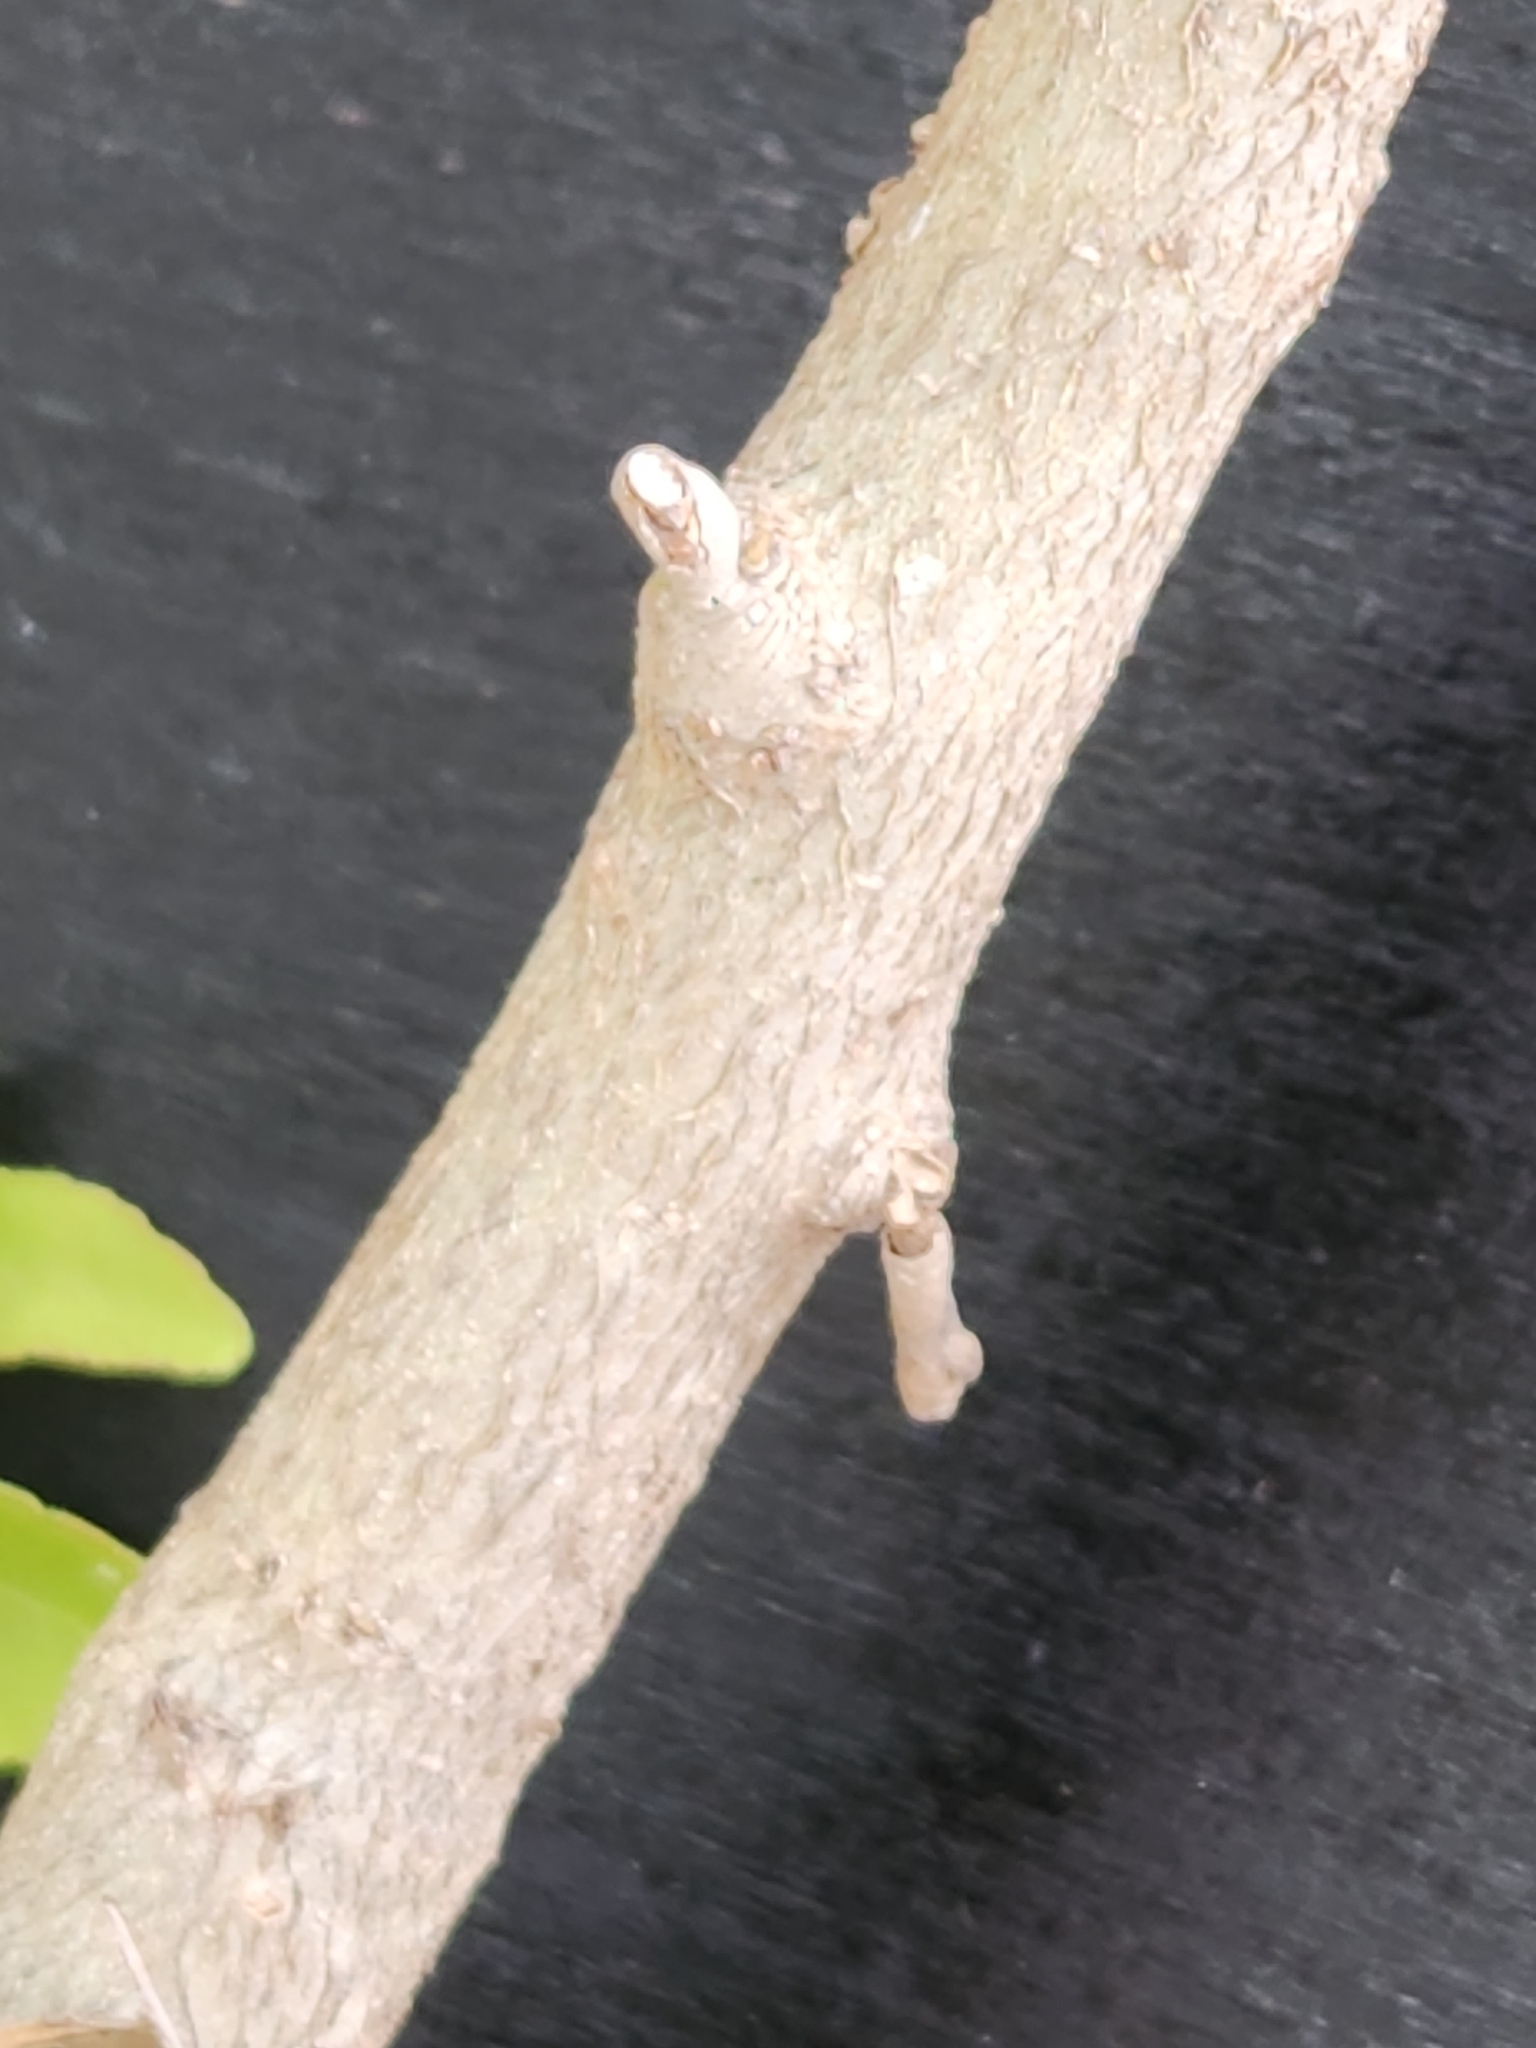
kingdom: Plantae
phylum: Tracheophyta
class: Magnoliopsida
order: Aquifoliales
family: Aquifoliaceae
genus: Ilex
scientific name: Ilex vomitoria
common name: Yaupon holly
